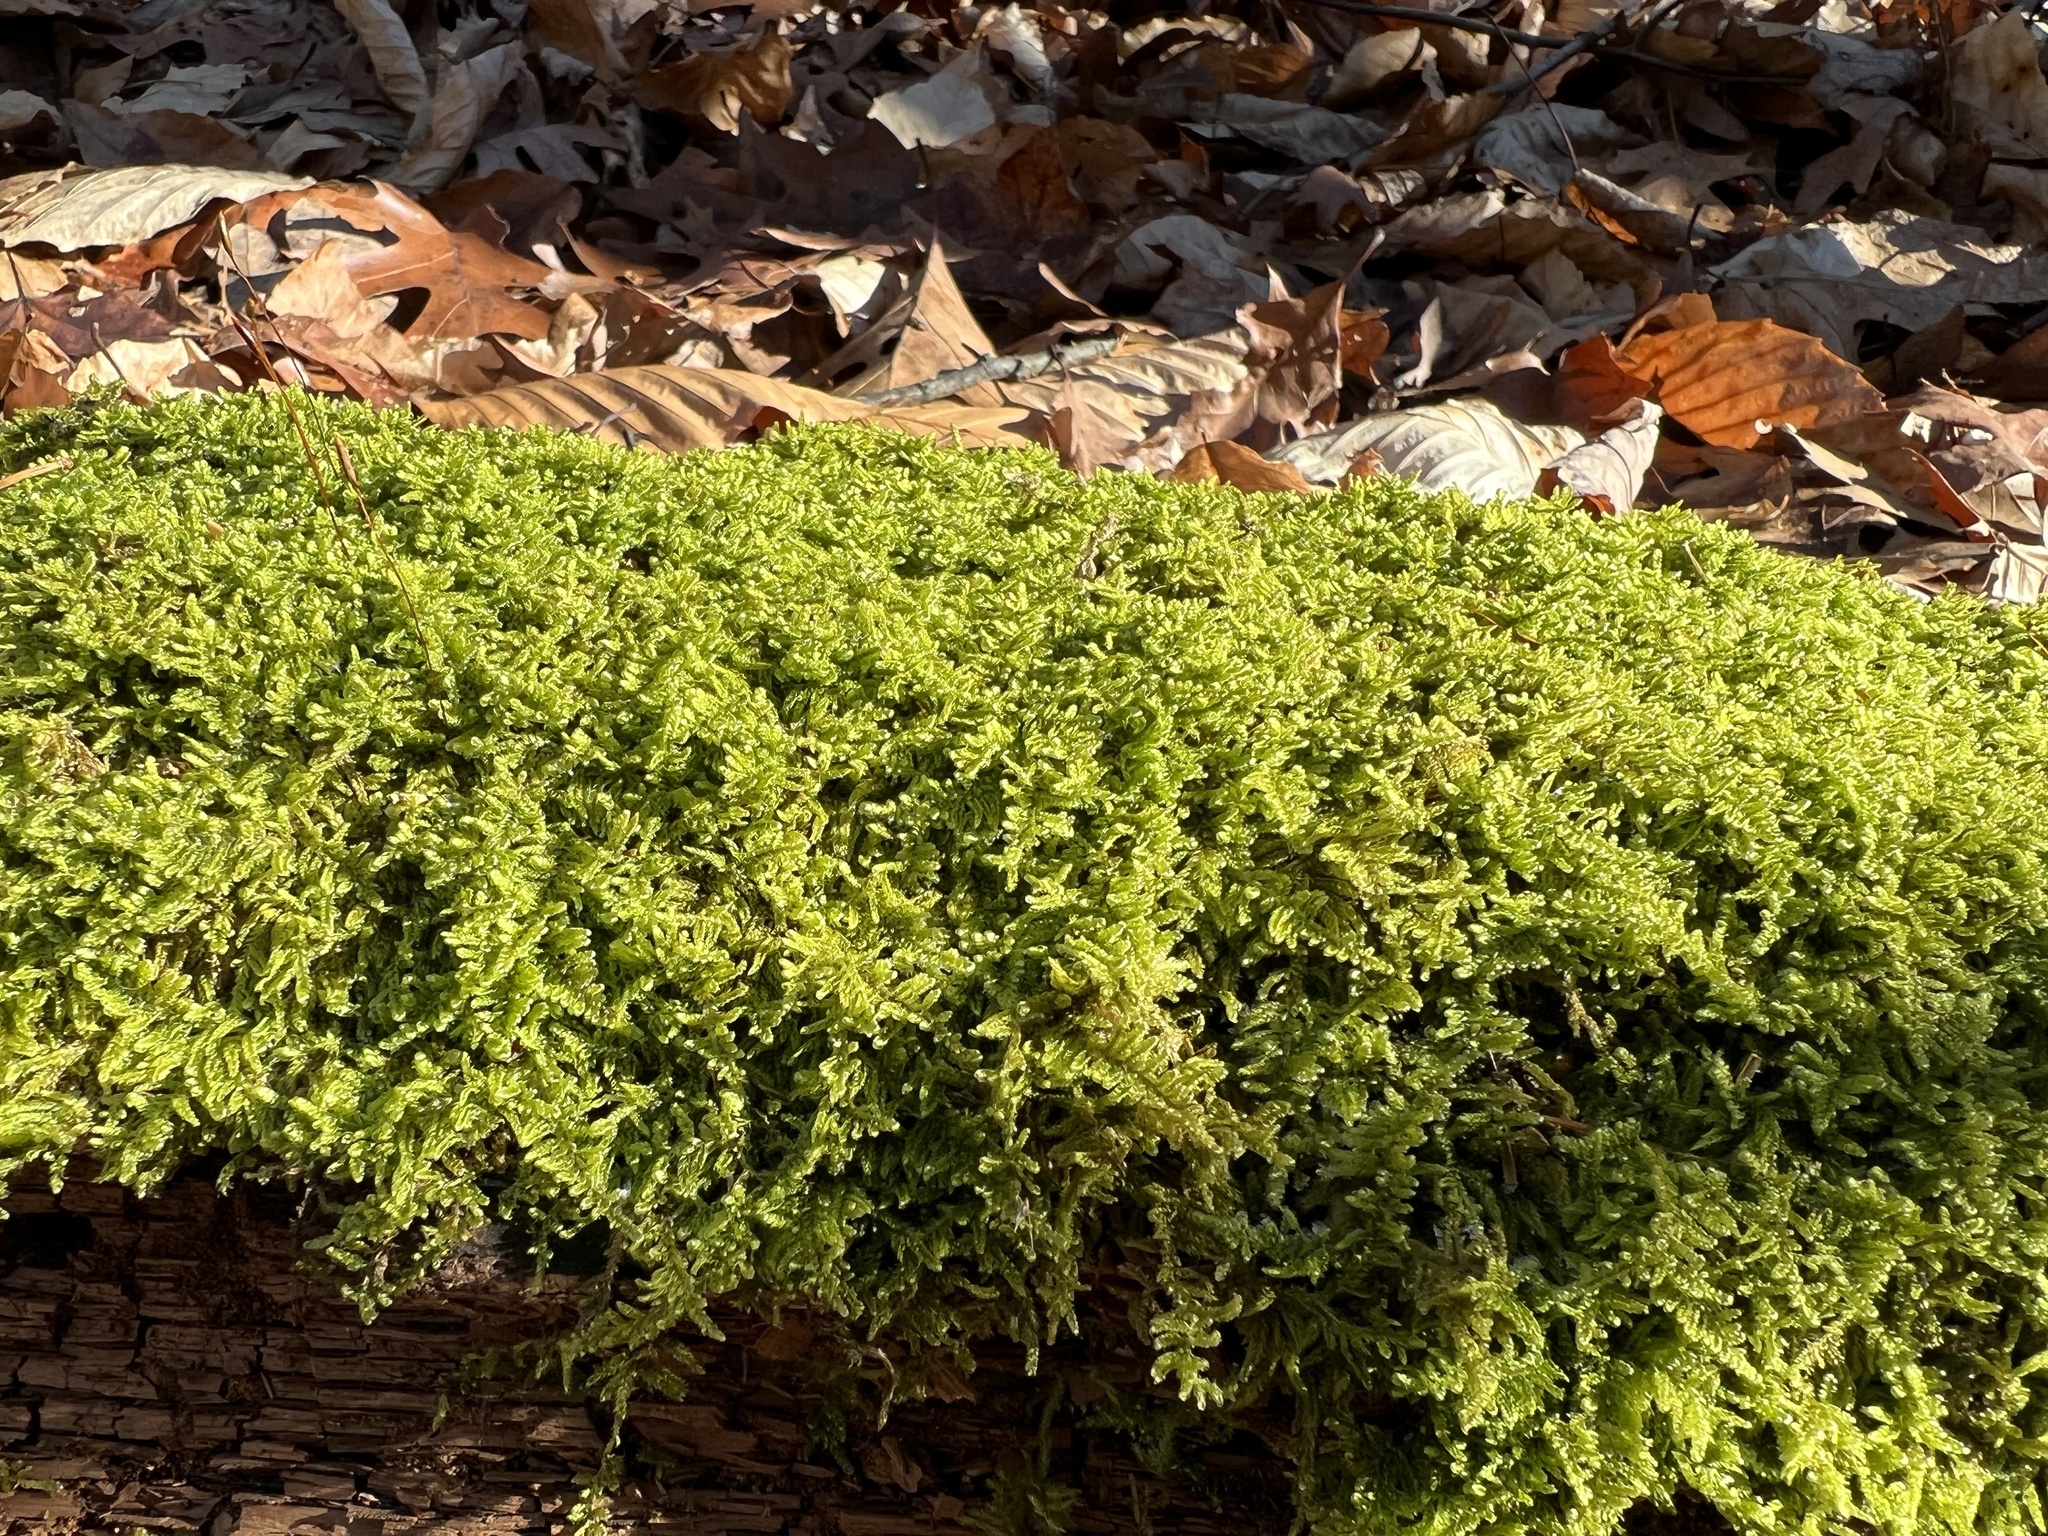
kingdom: Plantae
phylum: Bryophyta
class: Bryopsida
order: Hypnales
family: Callicladiaceae
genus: Callicladium
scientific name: Callicladium imponens
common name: Brocade moss
